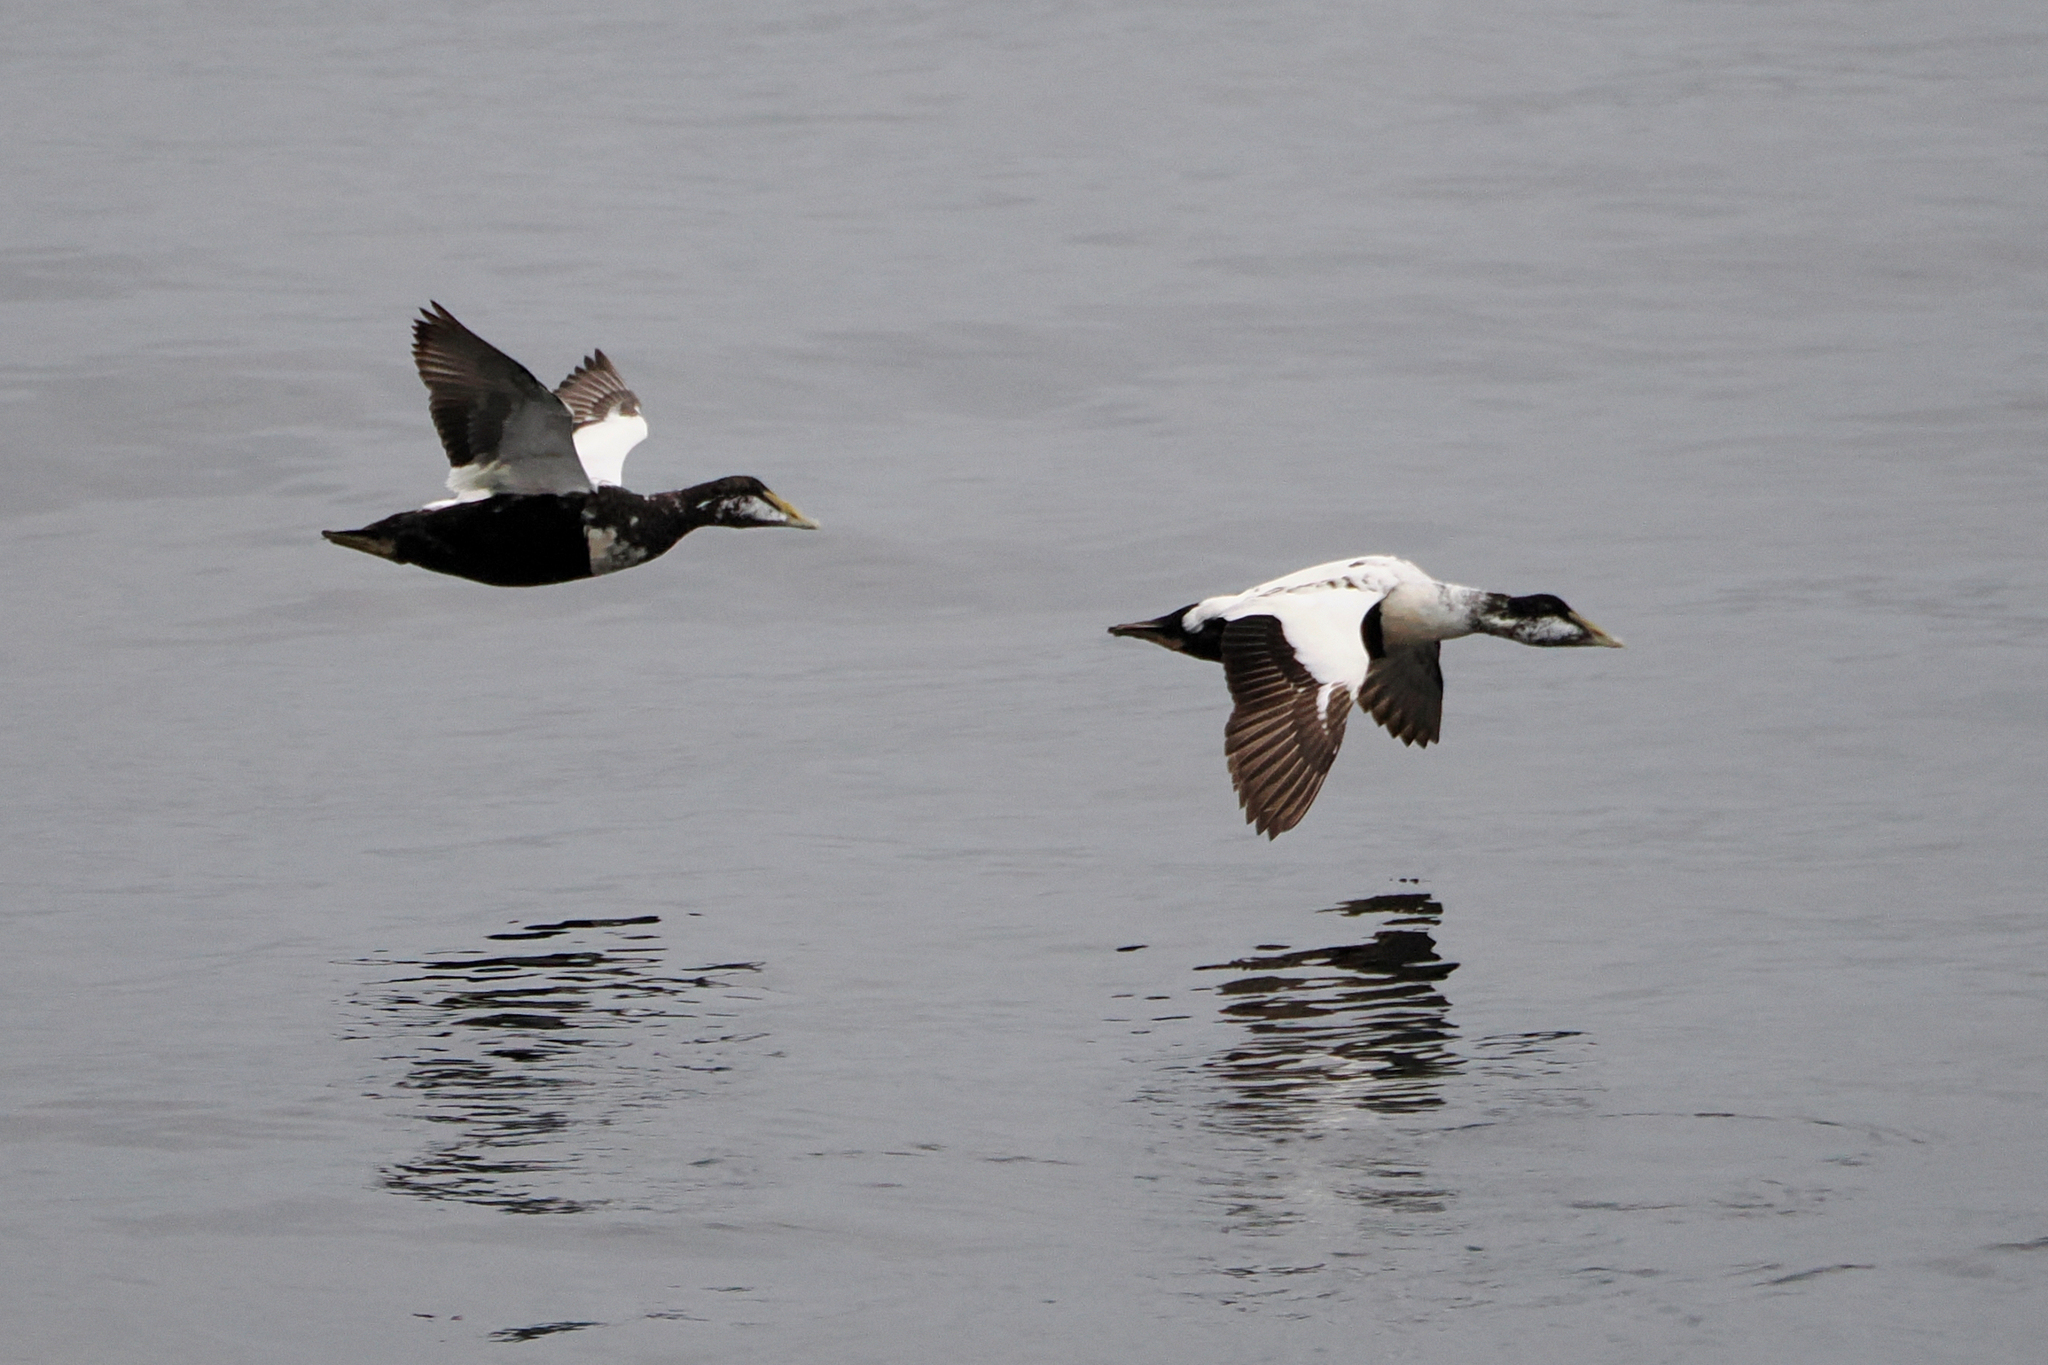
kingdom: Animalia
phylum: Chordata
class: Aves
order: Anseriformes
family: Anatidae
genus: Somateria
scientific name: Somateria mollissima
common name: Common eider
